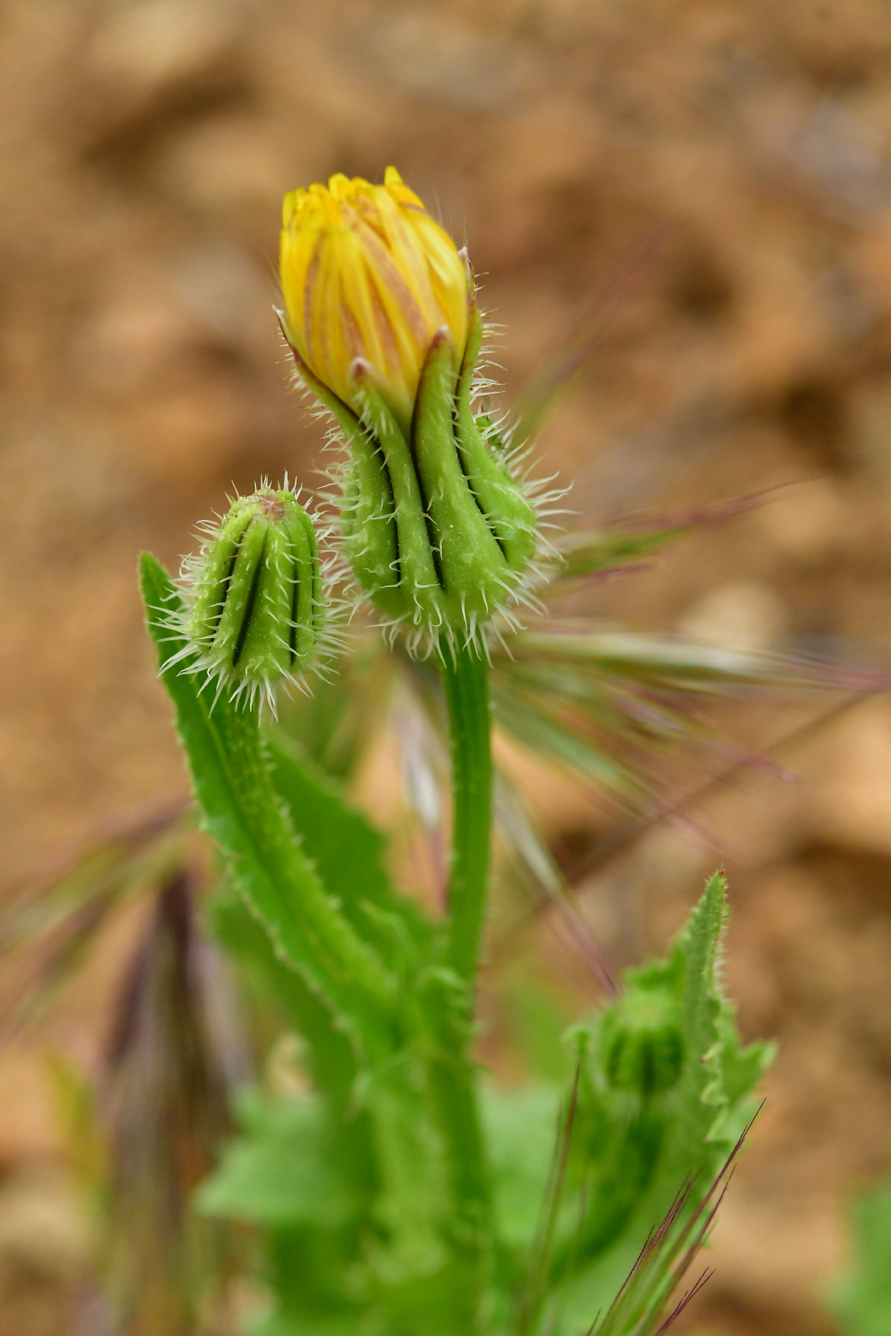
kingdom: Plantae
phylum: Tracheophyta
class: Magnoliopsida
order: Asterales
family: Asteraceae
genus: Urospermum
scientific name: Urospermum picroides
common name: False hawkbit
